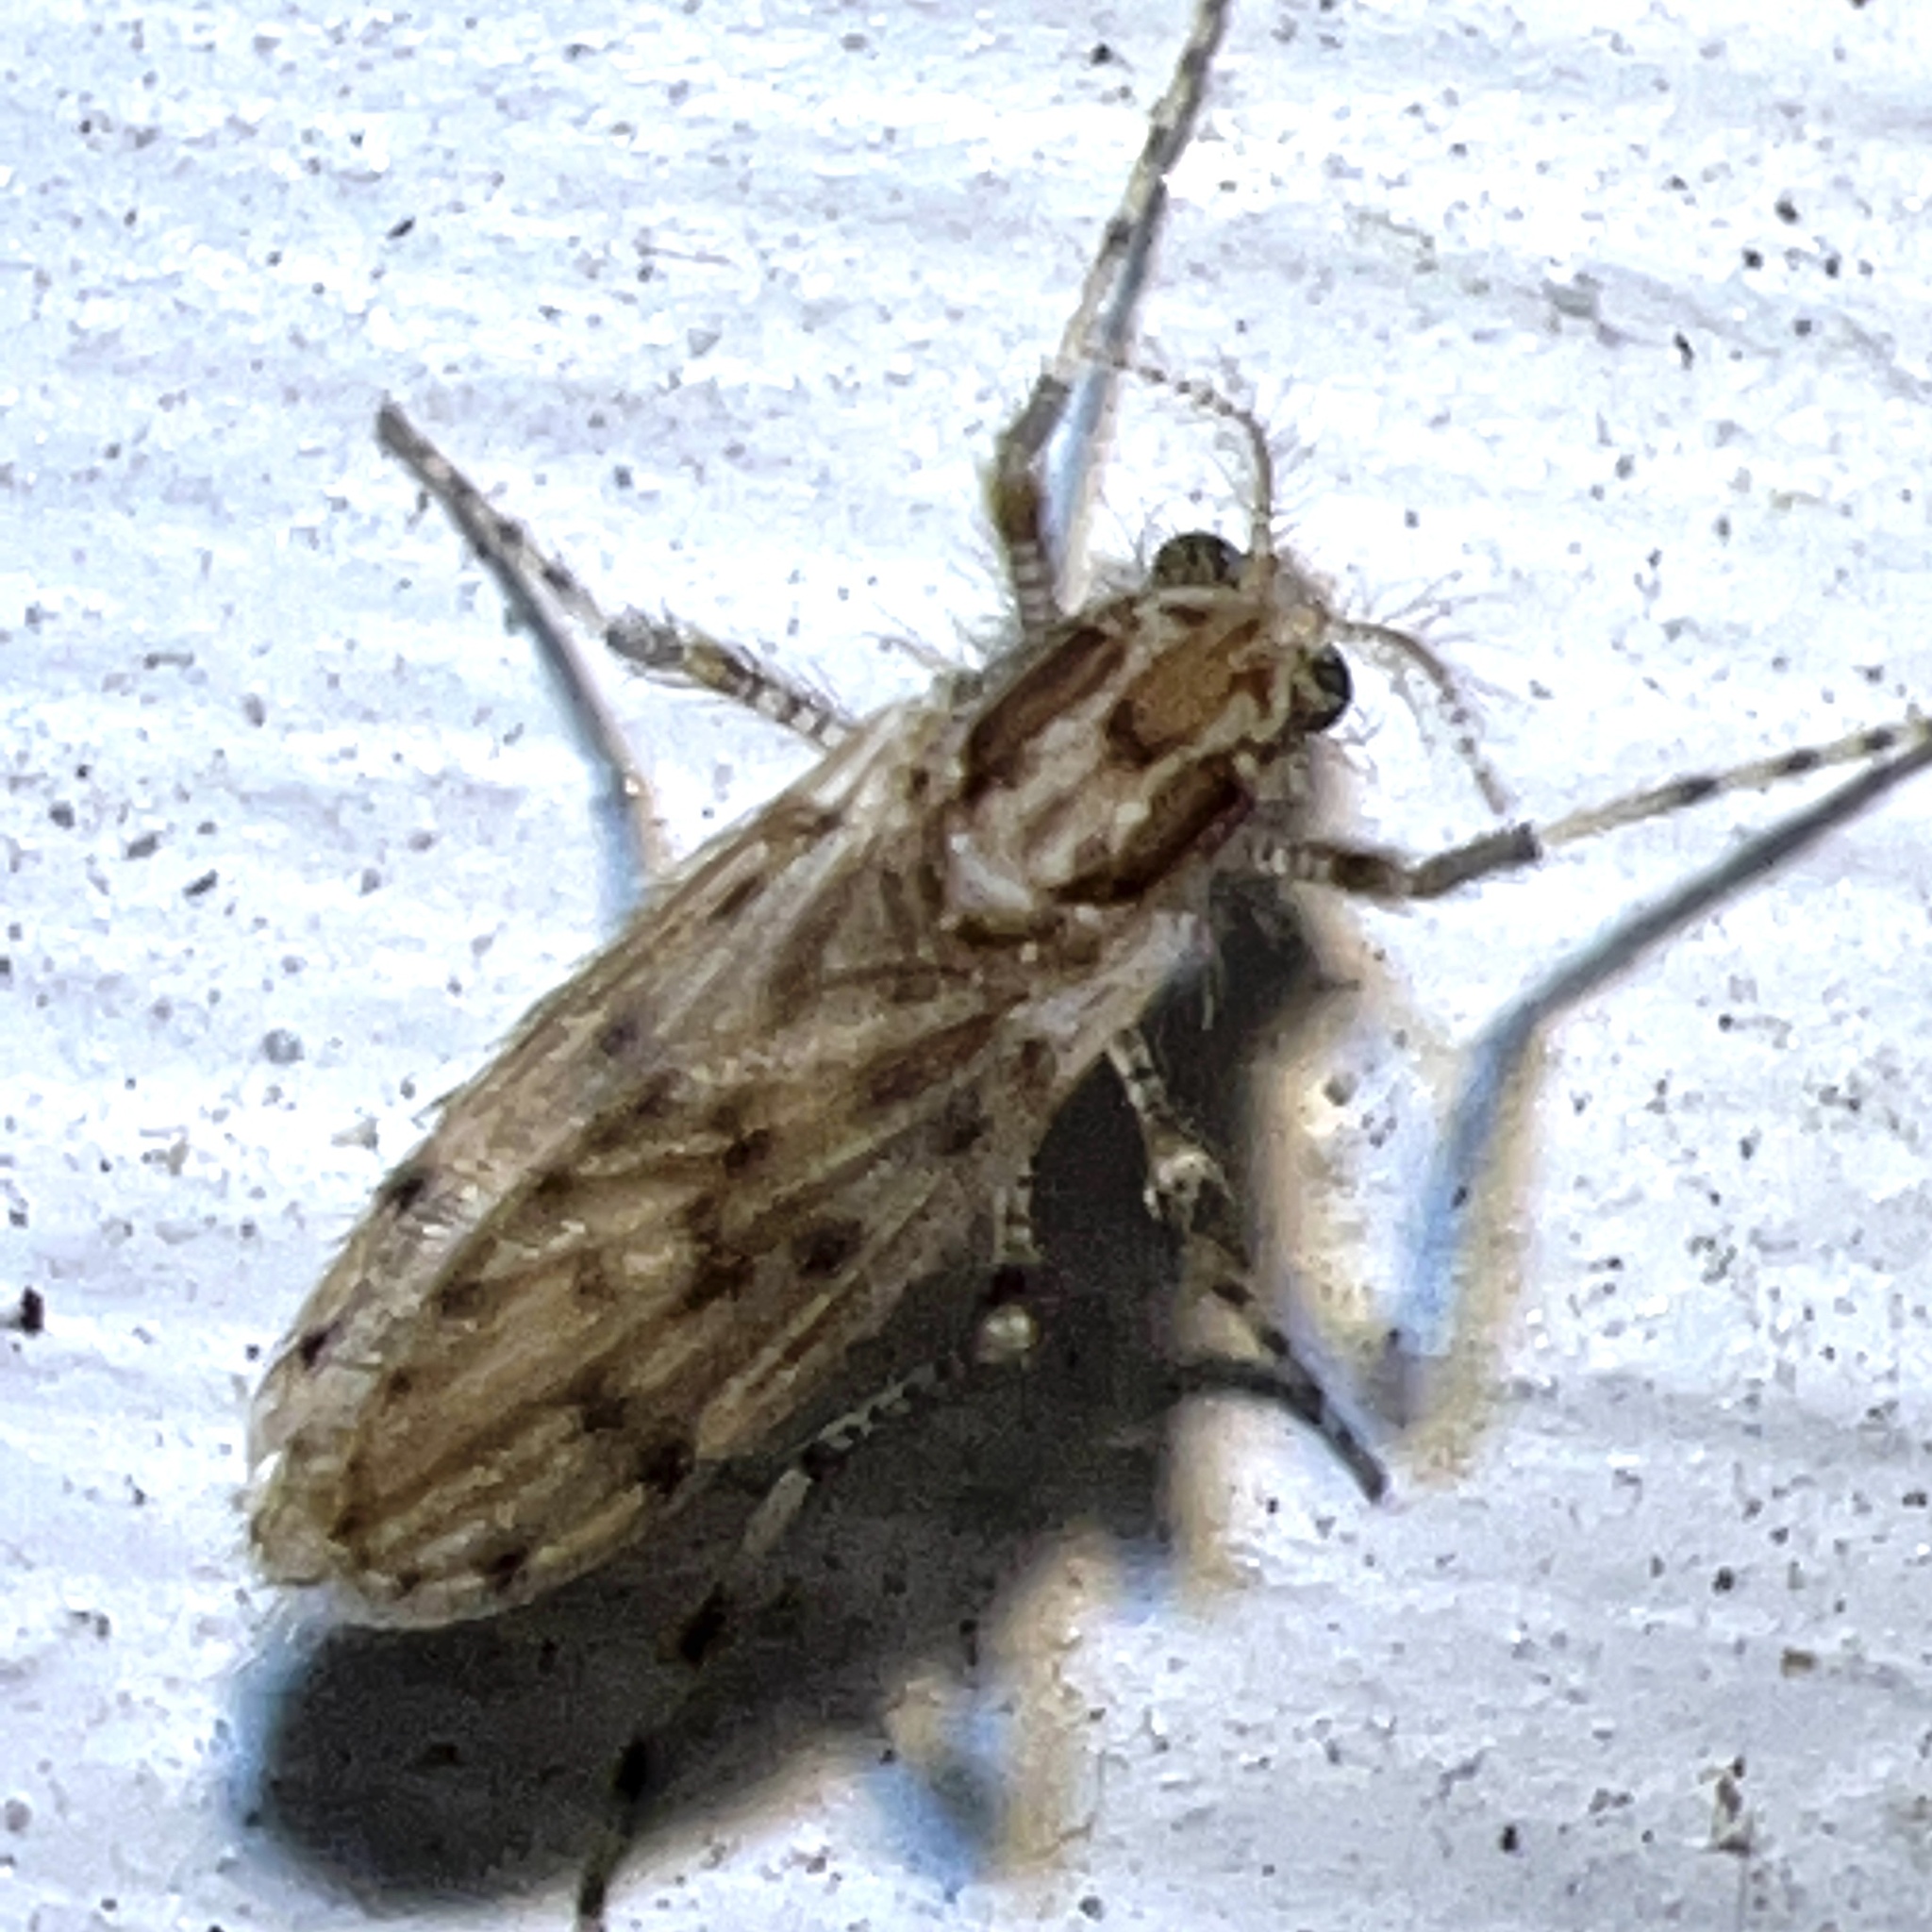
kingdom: Animalia
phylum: Arthropoda
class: Insecta
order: Diptera
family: Chaoboridae
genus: Chaoborus
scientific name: Chaoborus punctipennis
